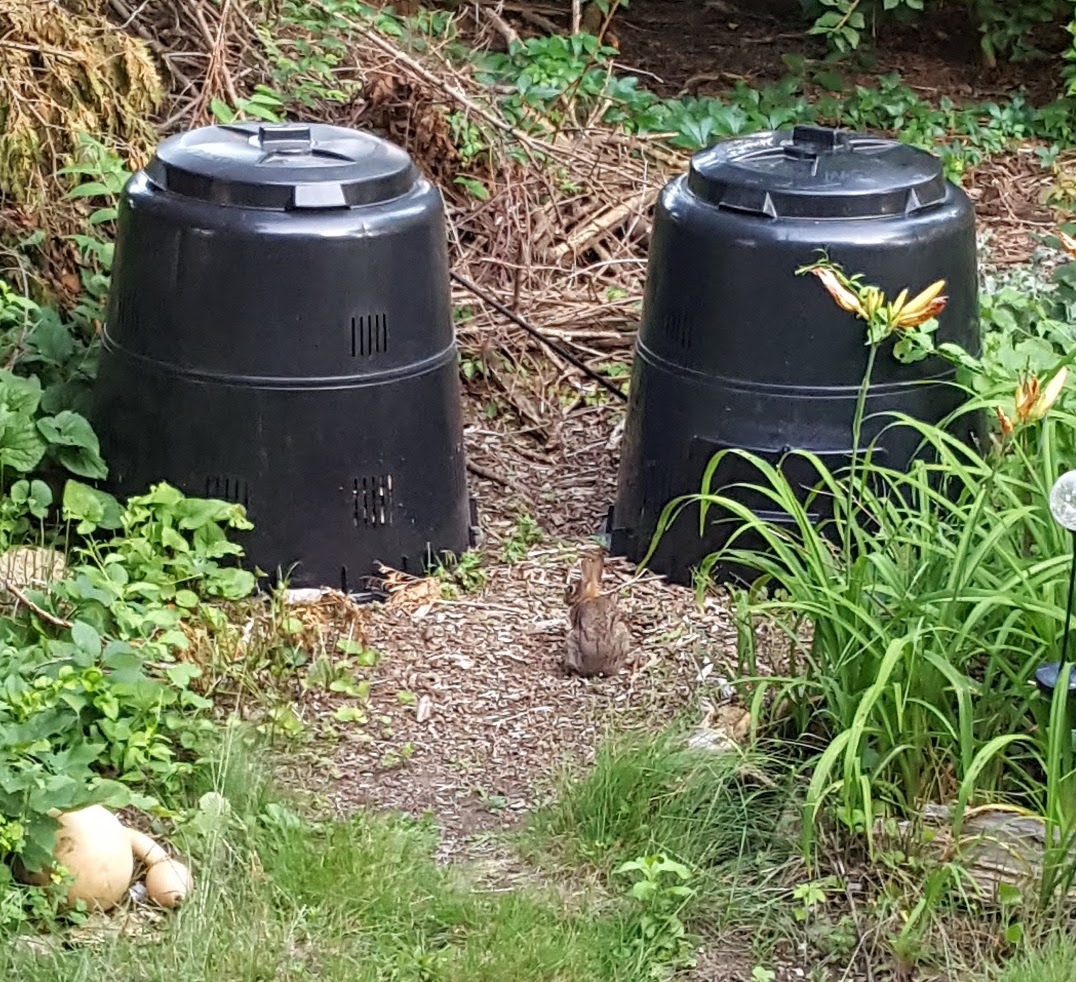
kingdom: Animalia
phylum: Chordata
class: Mammalia
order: Lagomorpha
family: Leporidae
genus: Sylvilagus
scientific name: Sylvilagus floridanus
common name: Eastern cottontail
